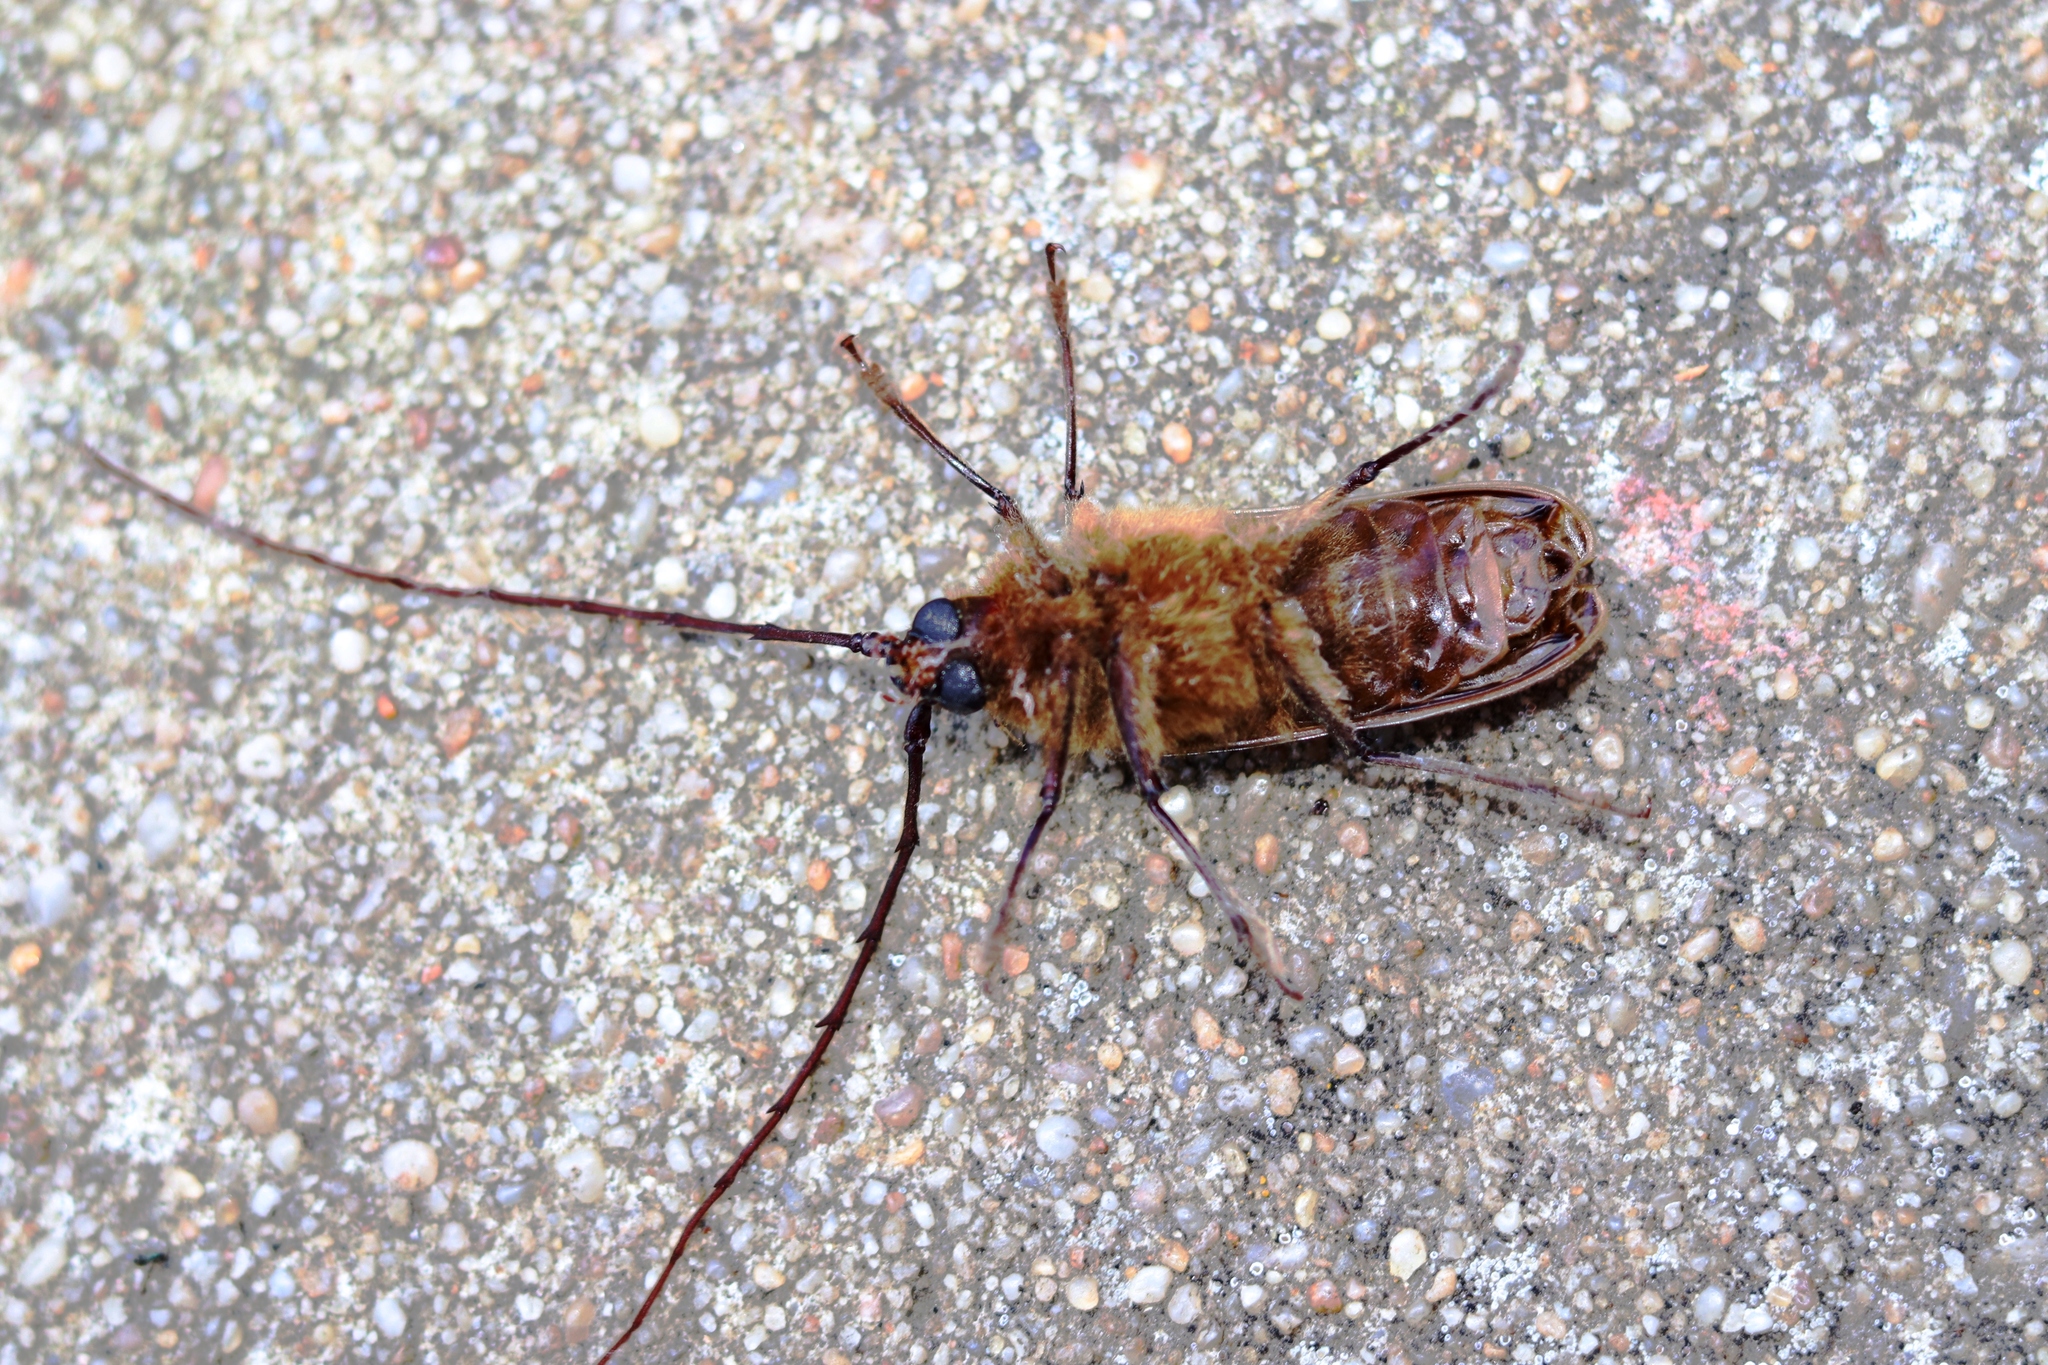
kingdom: Animalia
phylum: Arthropoda
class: Insecta
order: Coleoptera
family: Cerambycidae
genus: Prionoplus
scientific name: Prionoplus reticularis
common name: Huhu beetle
